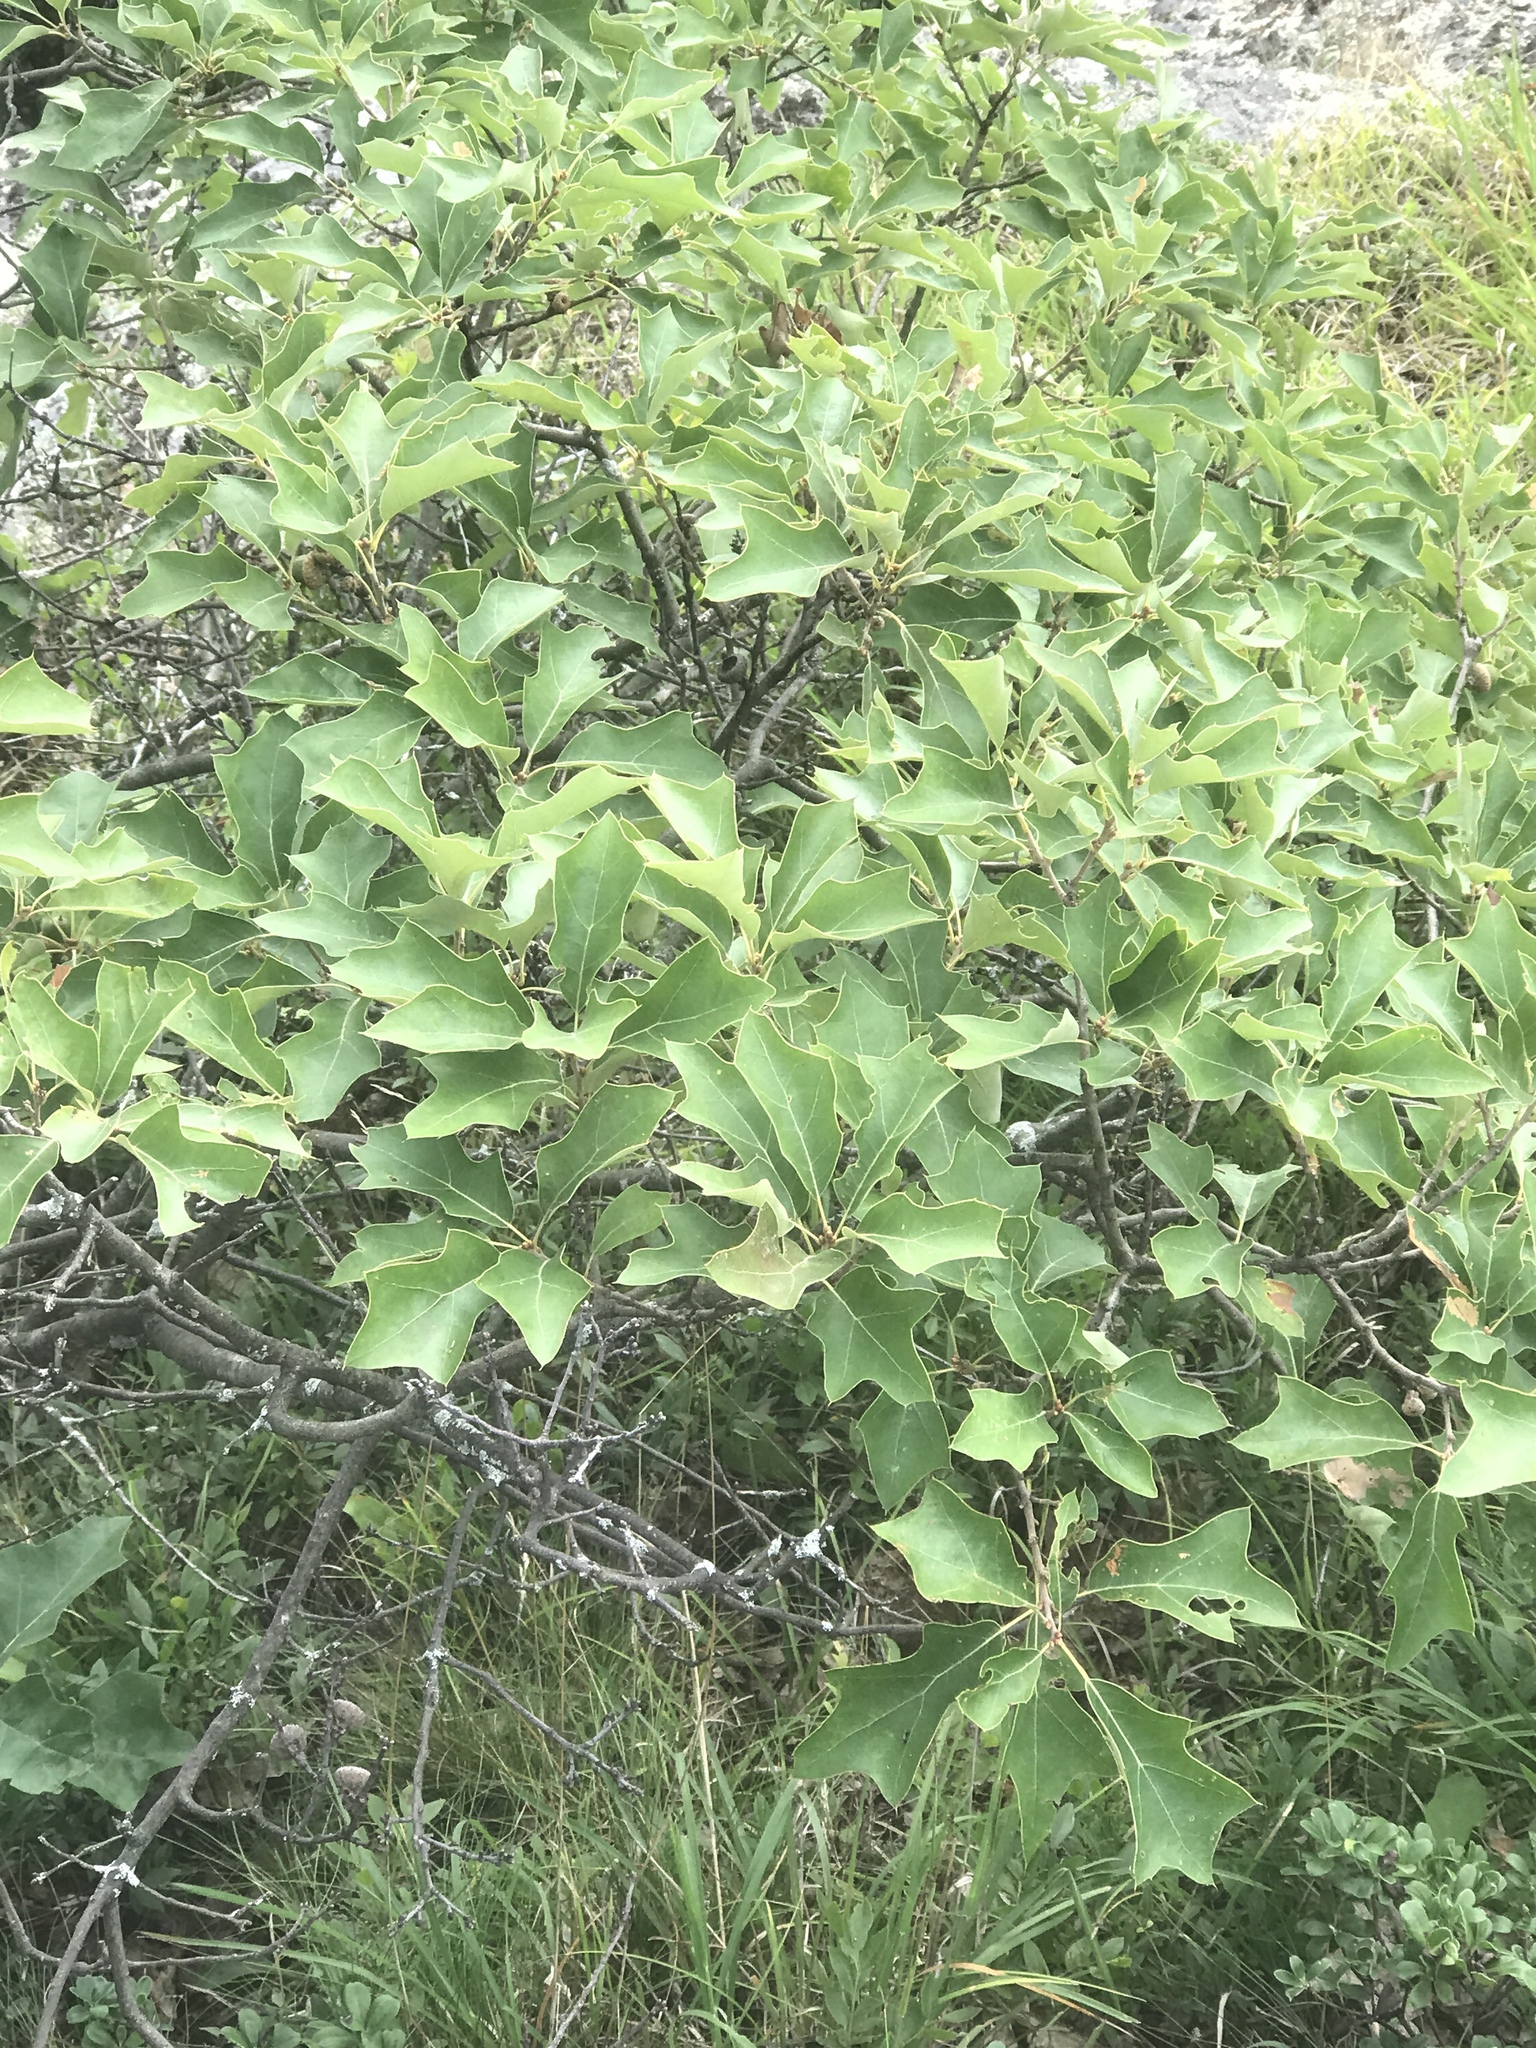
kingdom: Plantae
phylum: Tracheophyta
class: Magnoliopsida
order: Fagales
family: Fagaceae
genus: Quercus
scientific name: Quercus ilicifolia
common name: Bear oak
